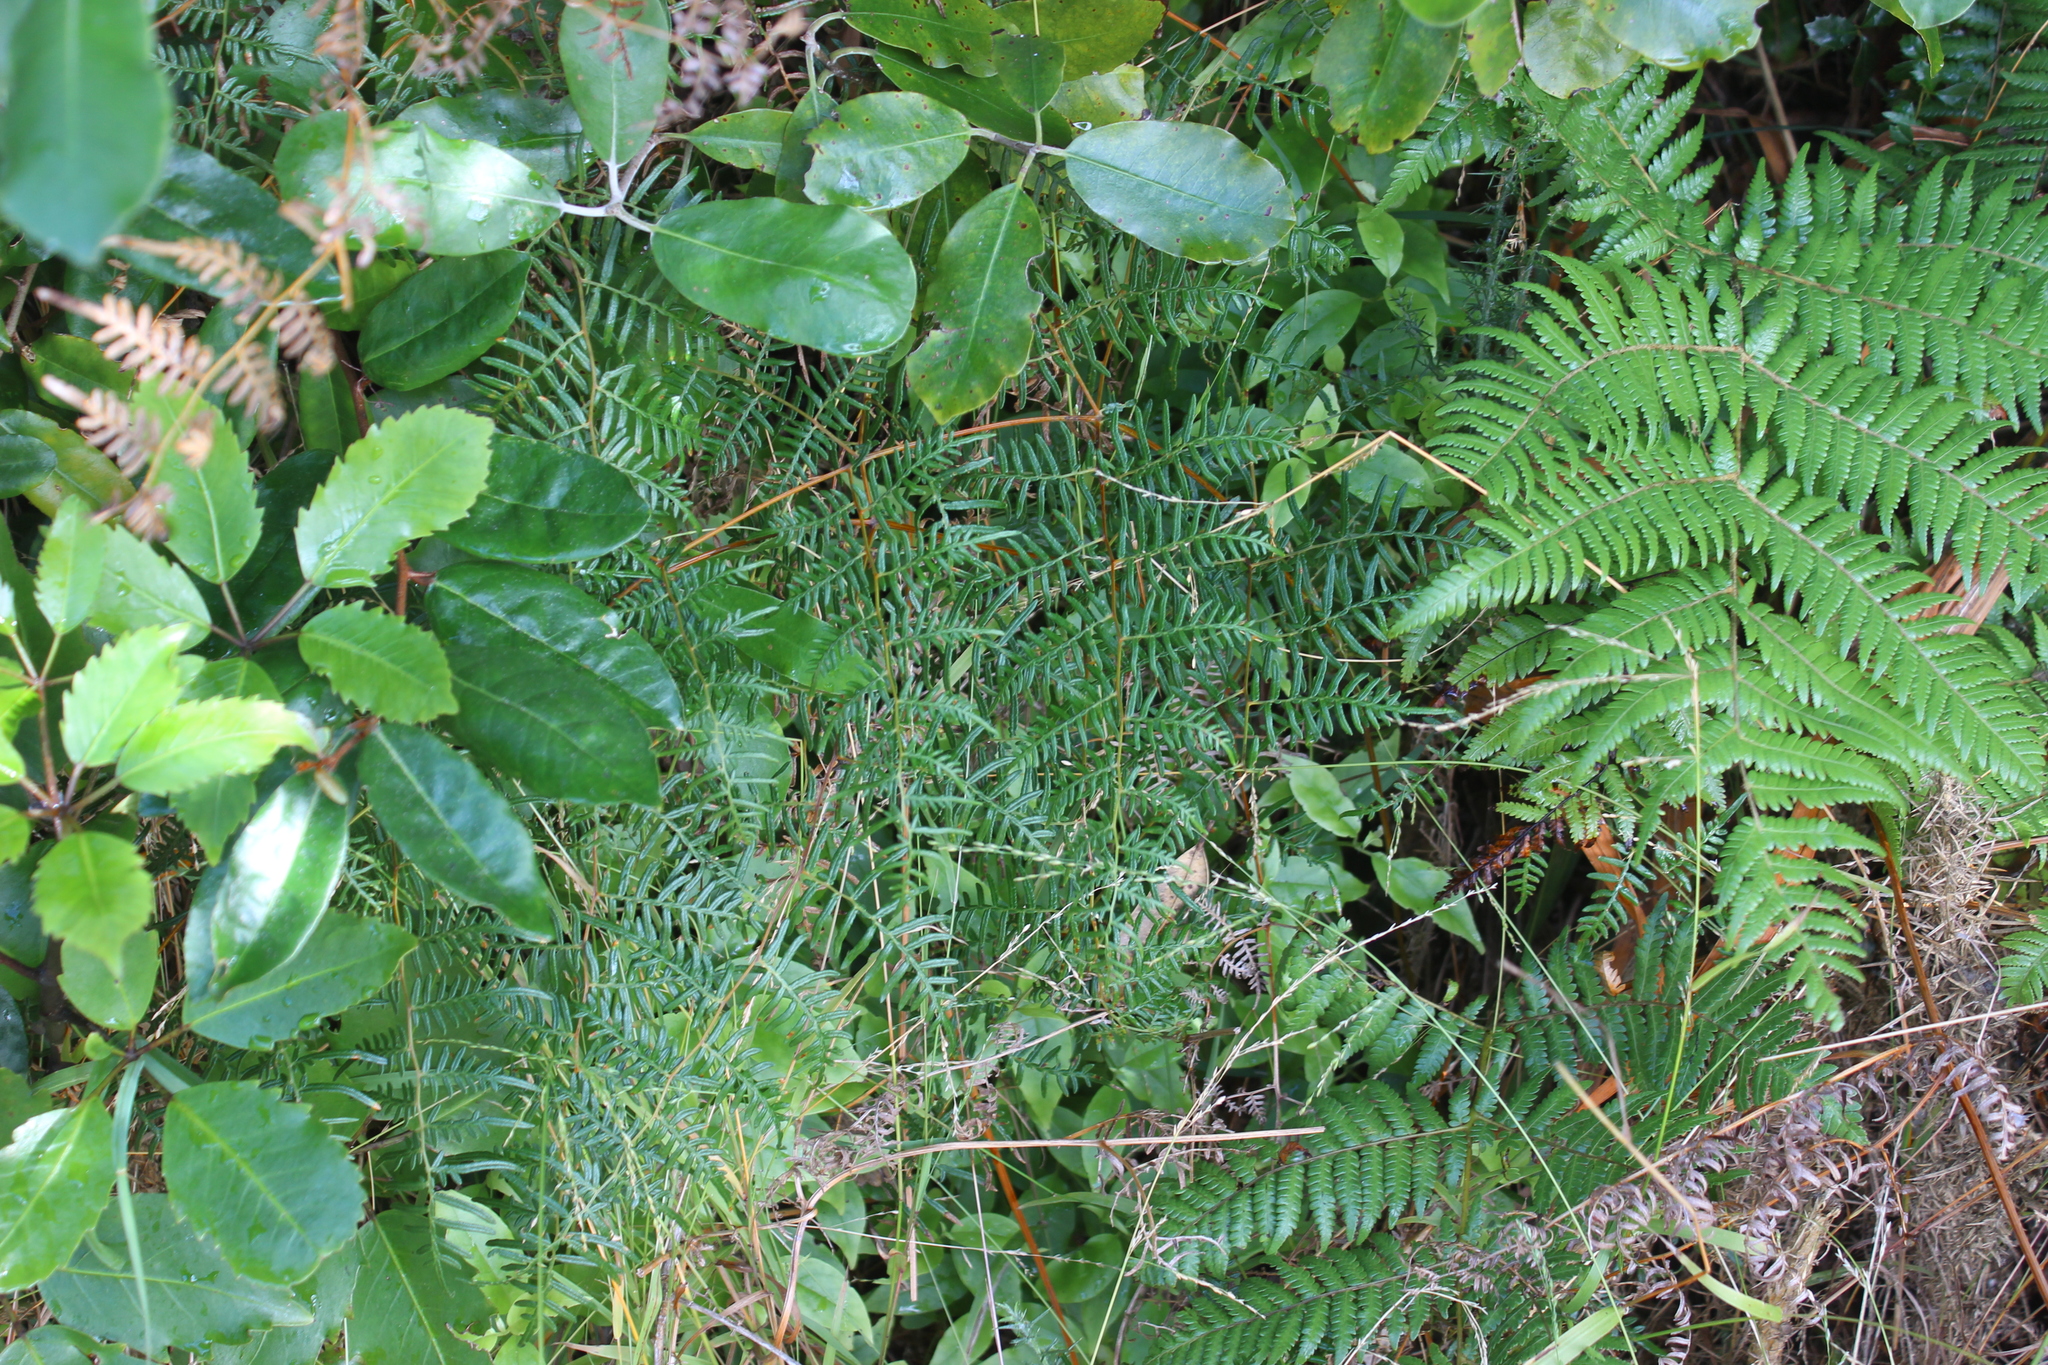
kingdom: Plantae
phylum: Tracheophyta
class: Polypodiopsida
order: Polypodiales
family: Dennstaedtiaceae
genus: Pteridium
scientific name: Pteridium esculentum
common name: Bracken fern
